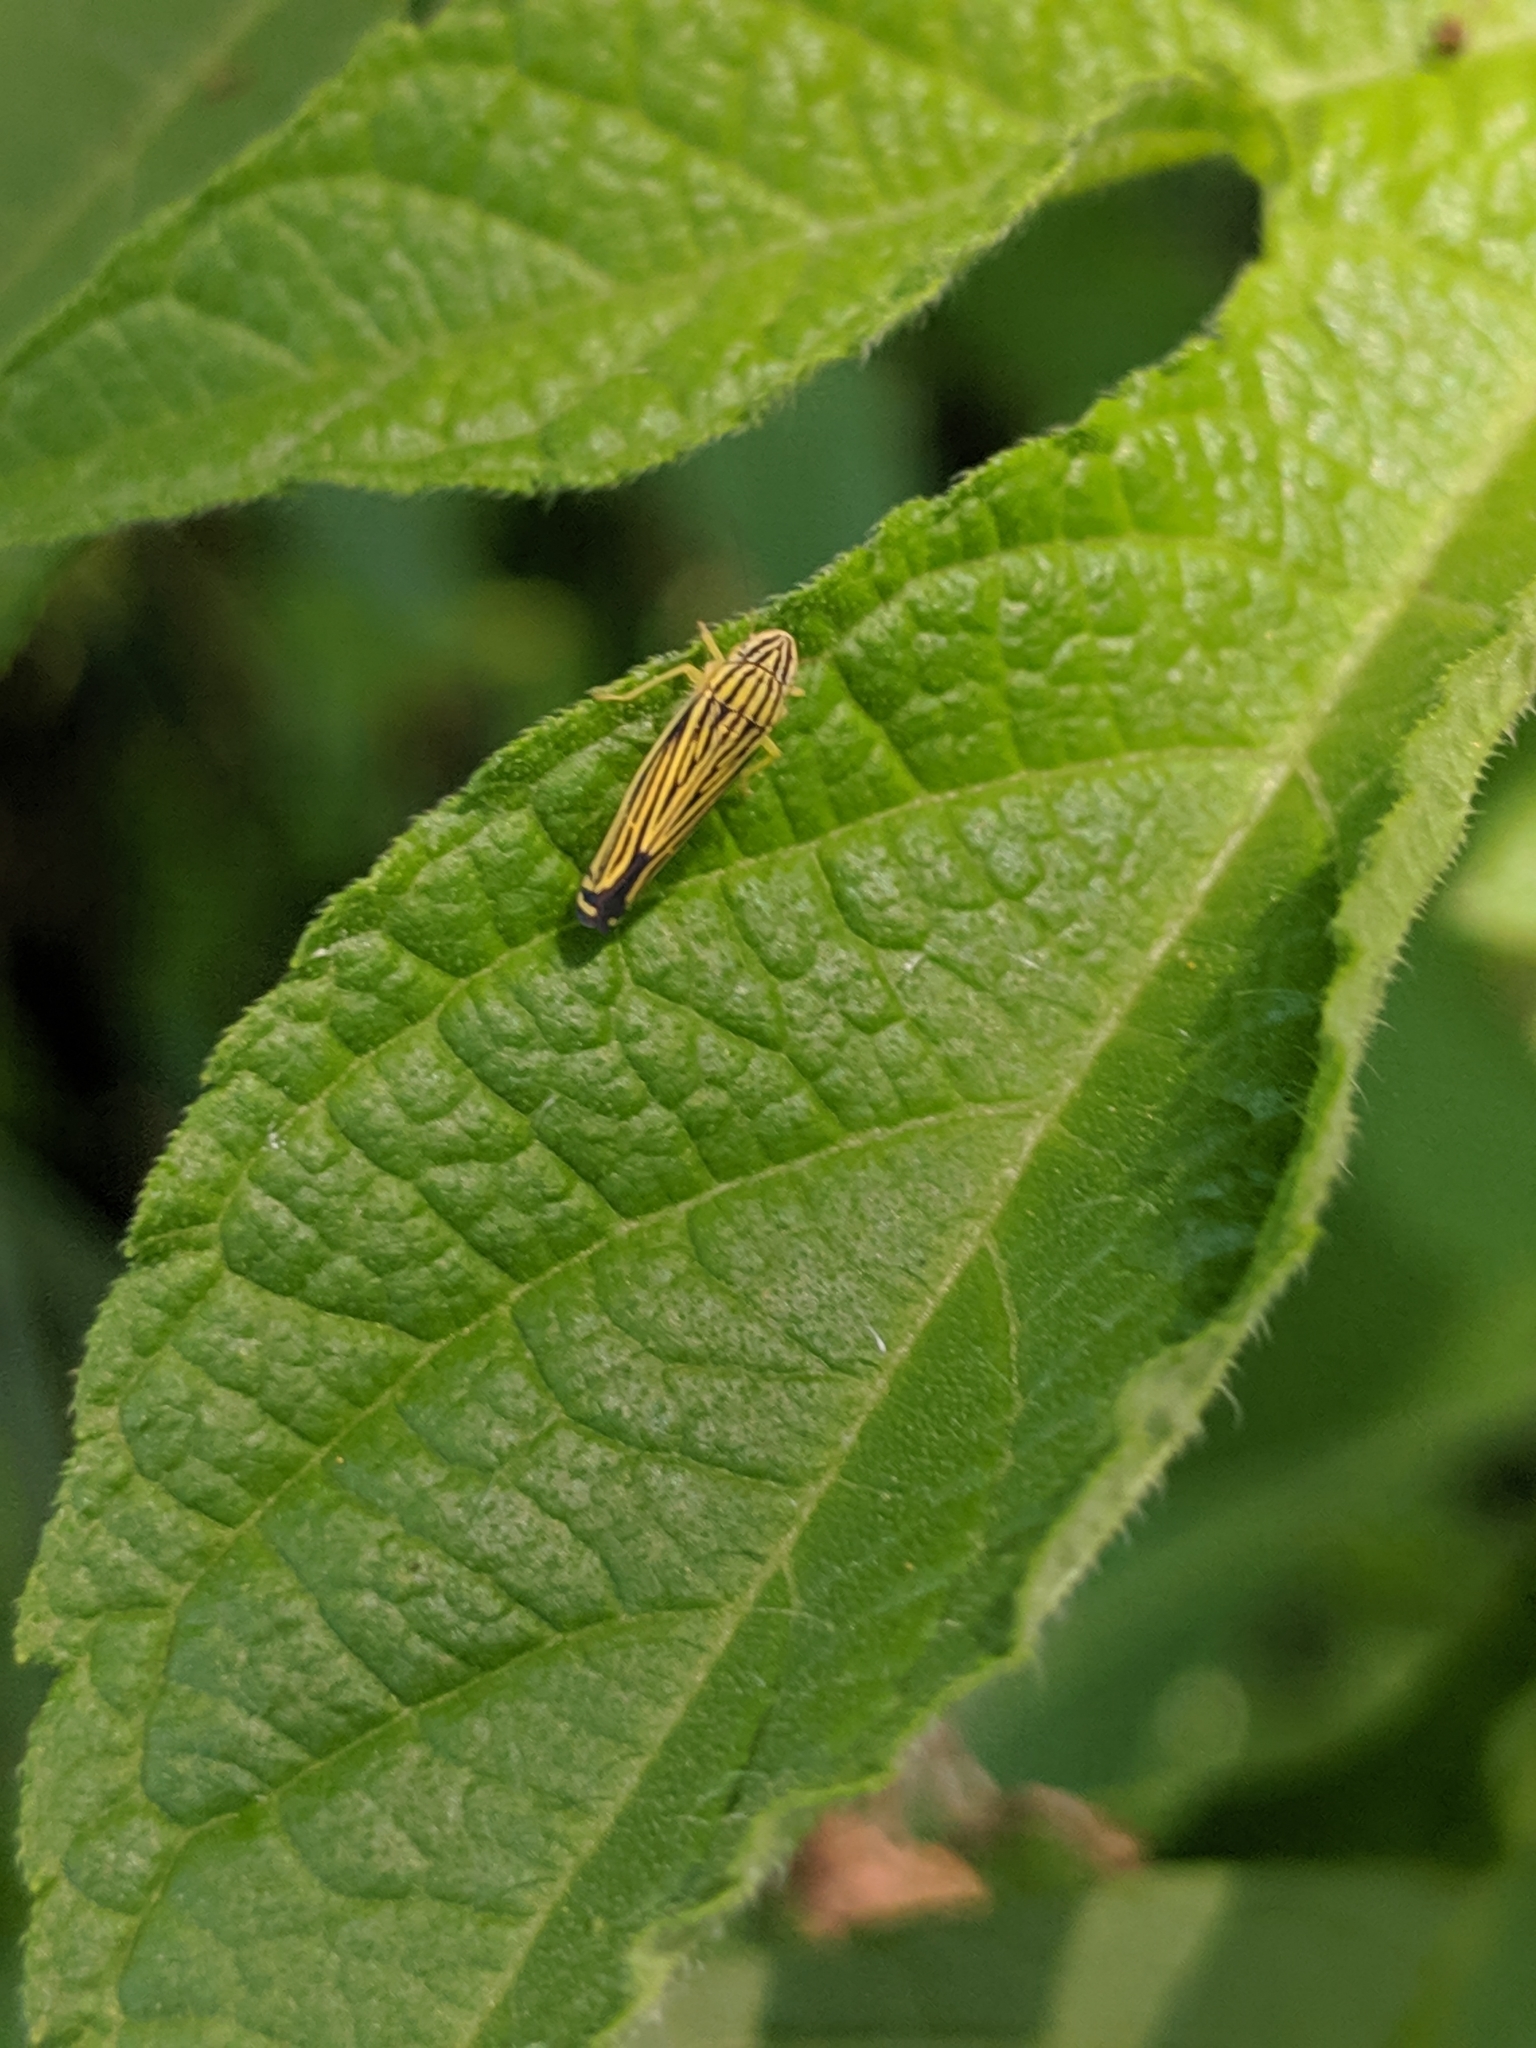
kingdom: Animalia
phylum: Arthropoda
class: Insecta
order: Hemiptera
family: Cicadellidae
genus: Sibovia
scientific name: Sibovia occatoria
